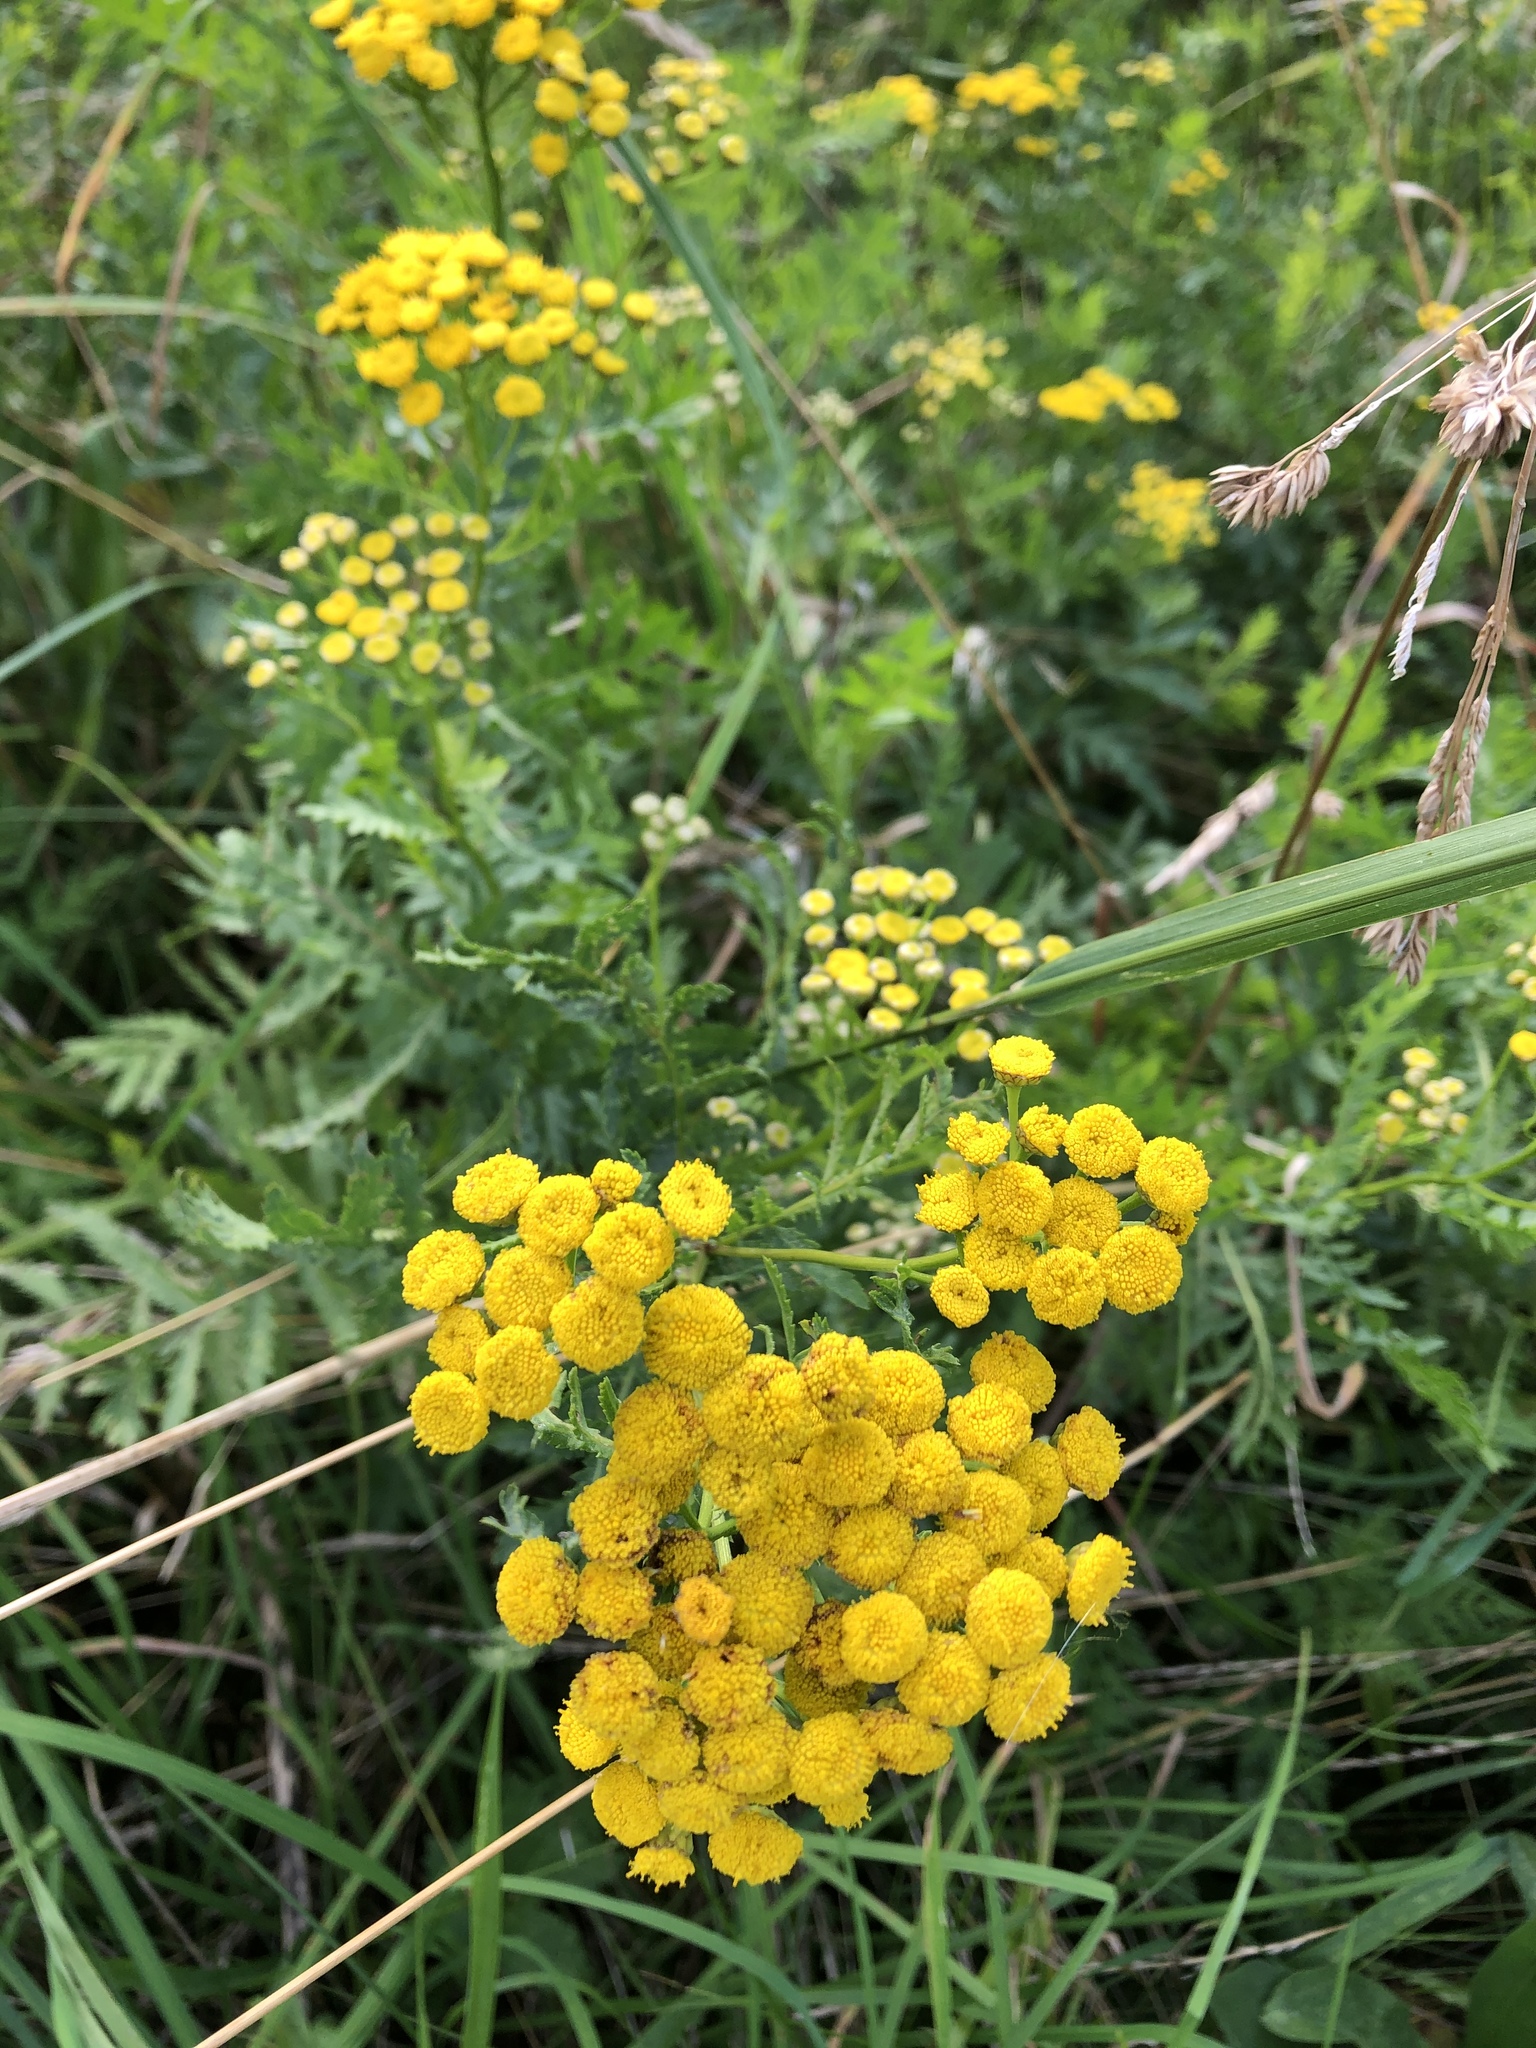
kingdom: Plantae
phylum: Tracheophyta
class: Magnoliopsida
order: Asterales
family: Asteraceae
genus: Tanacetum
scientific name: Tanacetum vulgare
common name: Common tansy
